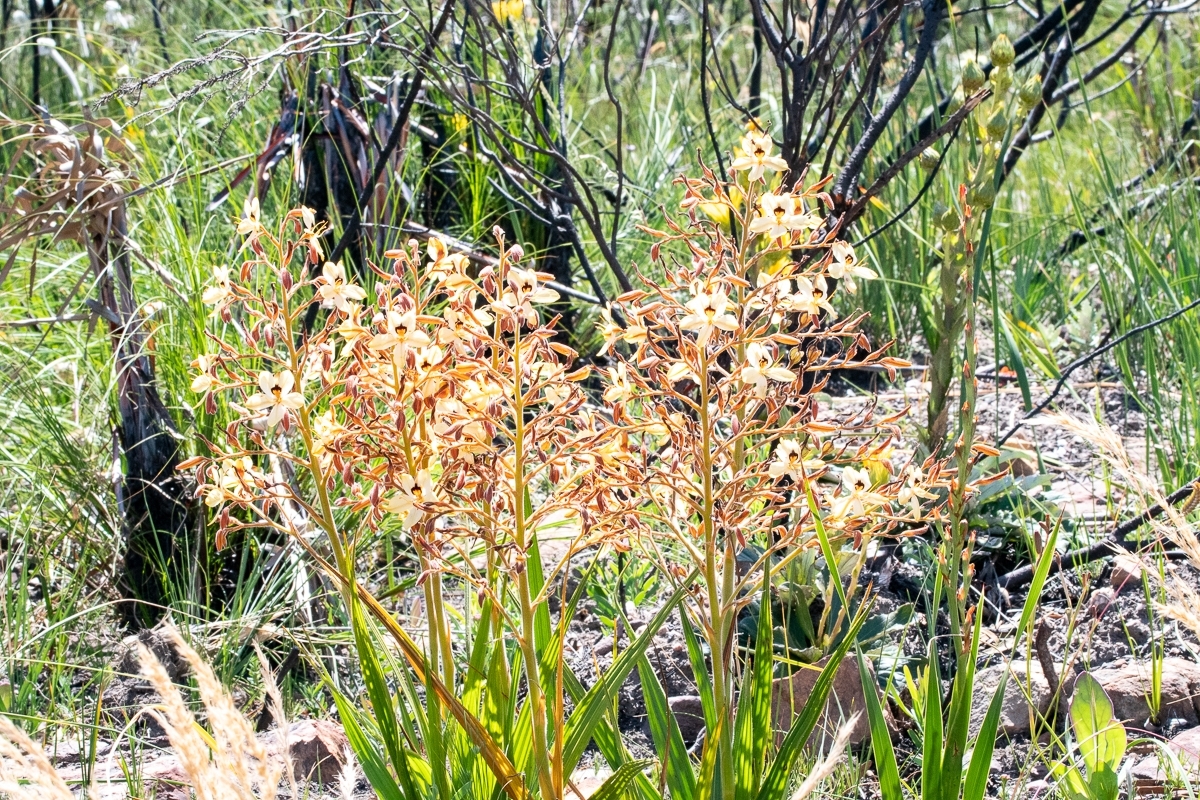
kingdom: Plantae
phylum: Tracheophyta
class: Liliopsida
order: Commelinales
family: Haemodoraceae
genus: Wachendorfia
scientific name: Wachendorfia paniculata
